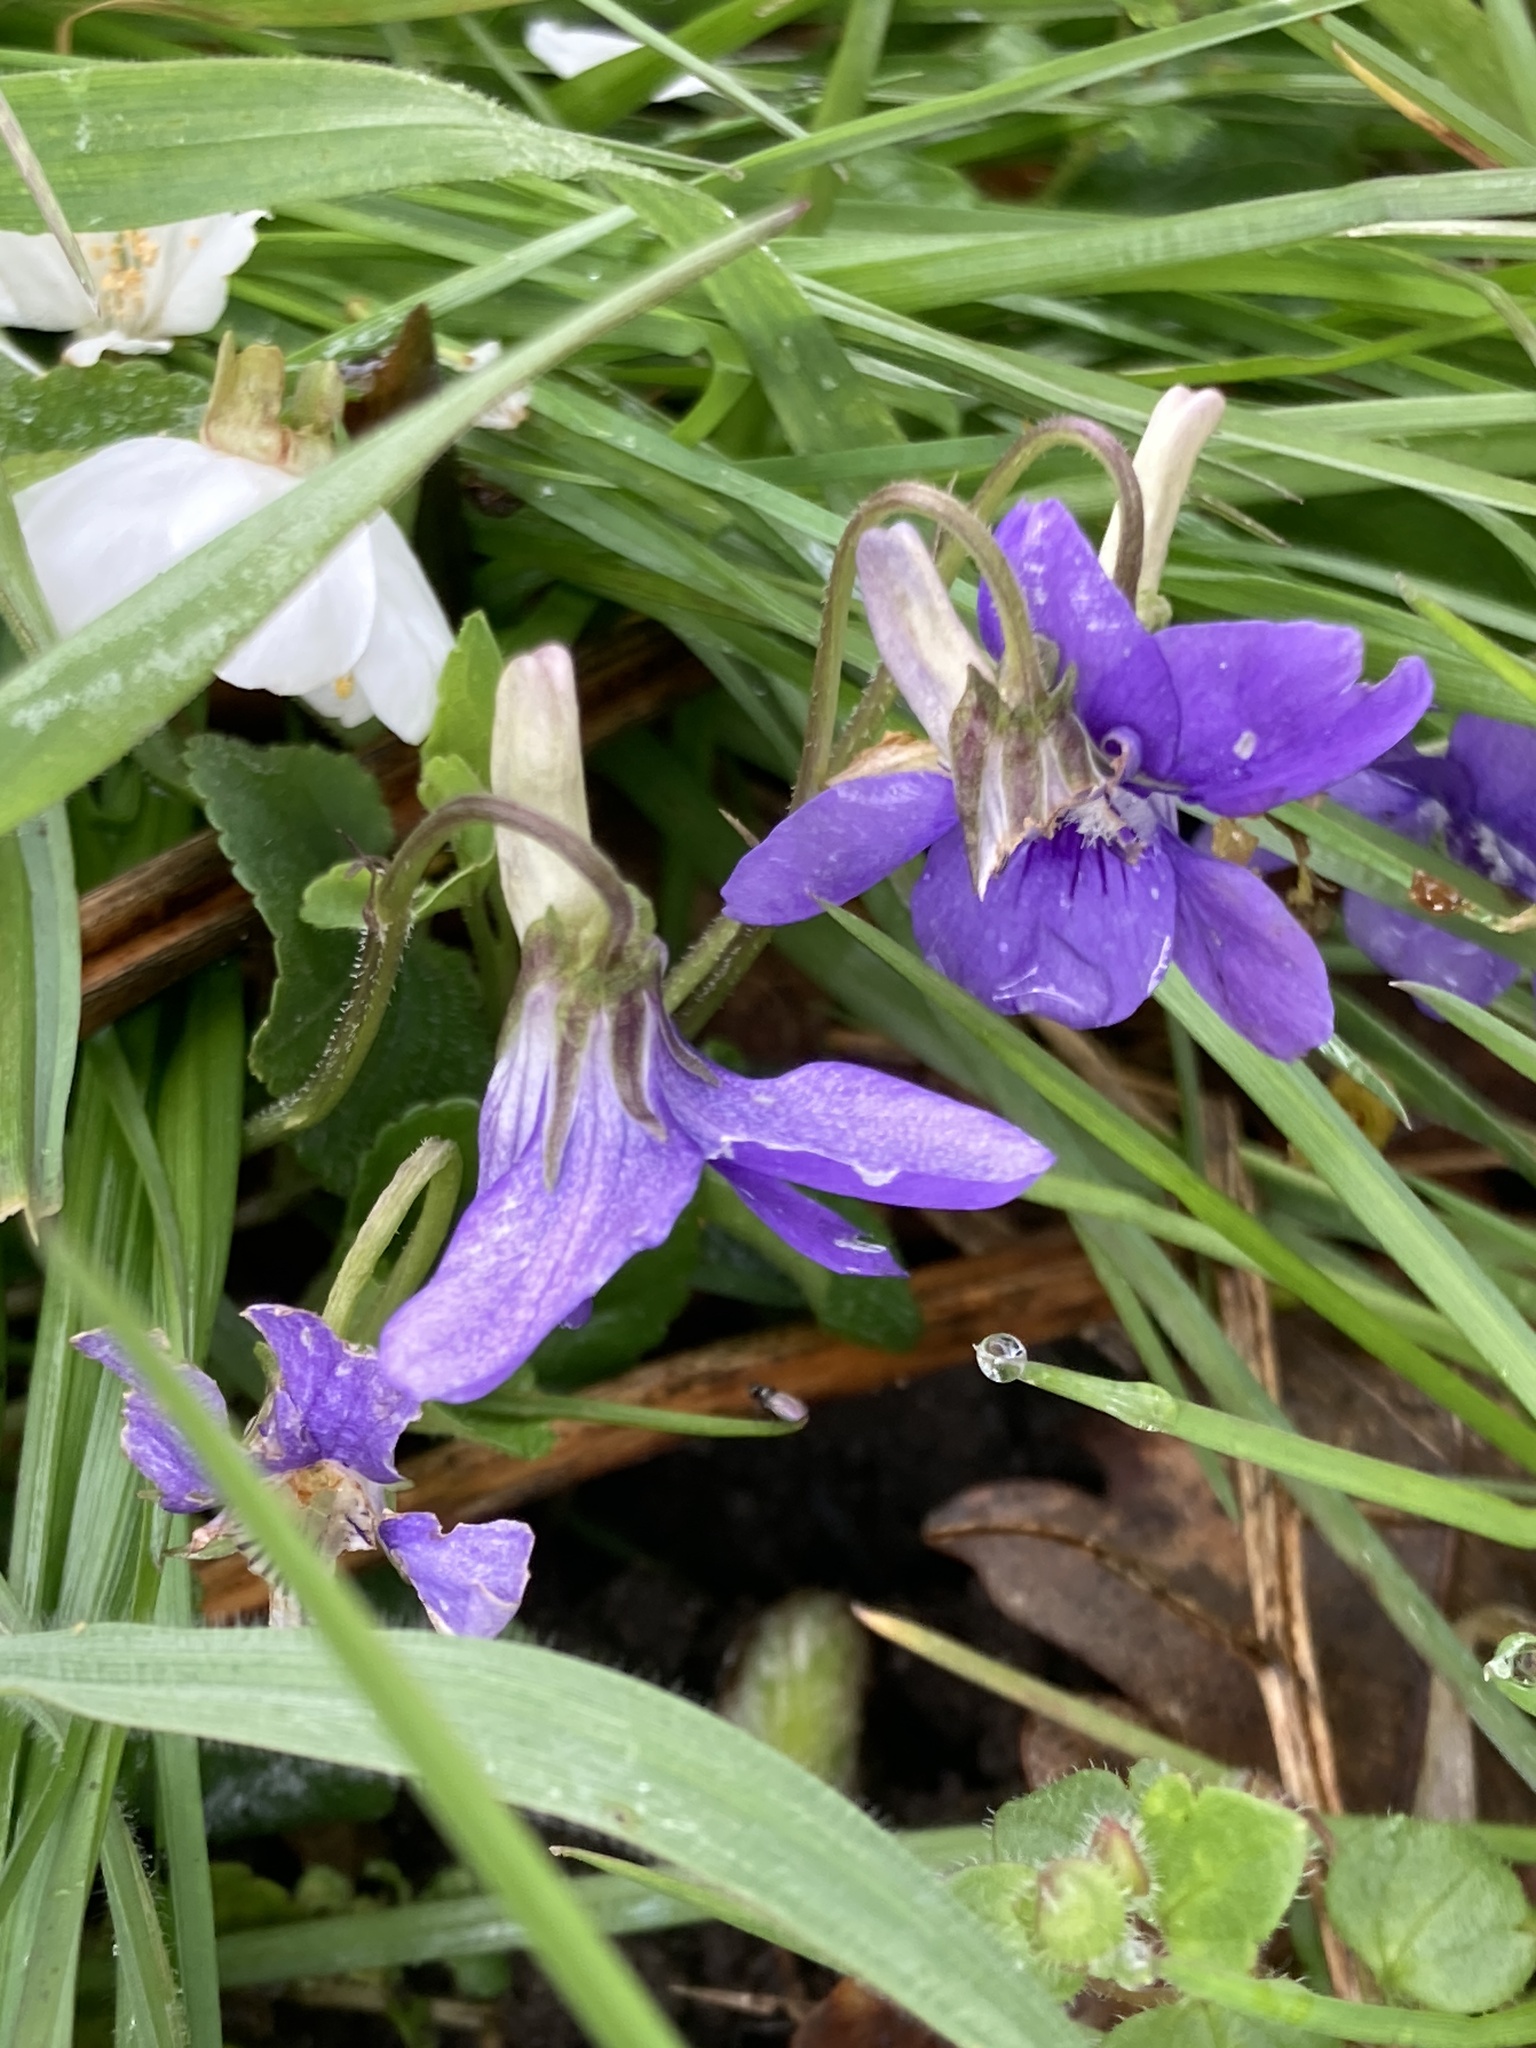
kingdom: Plantae
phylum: Tracheophyta
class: Magnoliopsida
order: Malpighiales
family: Violaceae
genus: Viola
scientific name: Viola riviniana
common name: Common dog-violet
